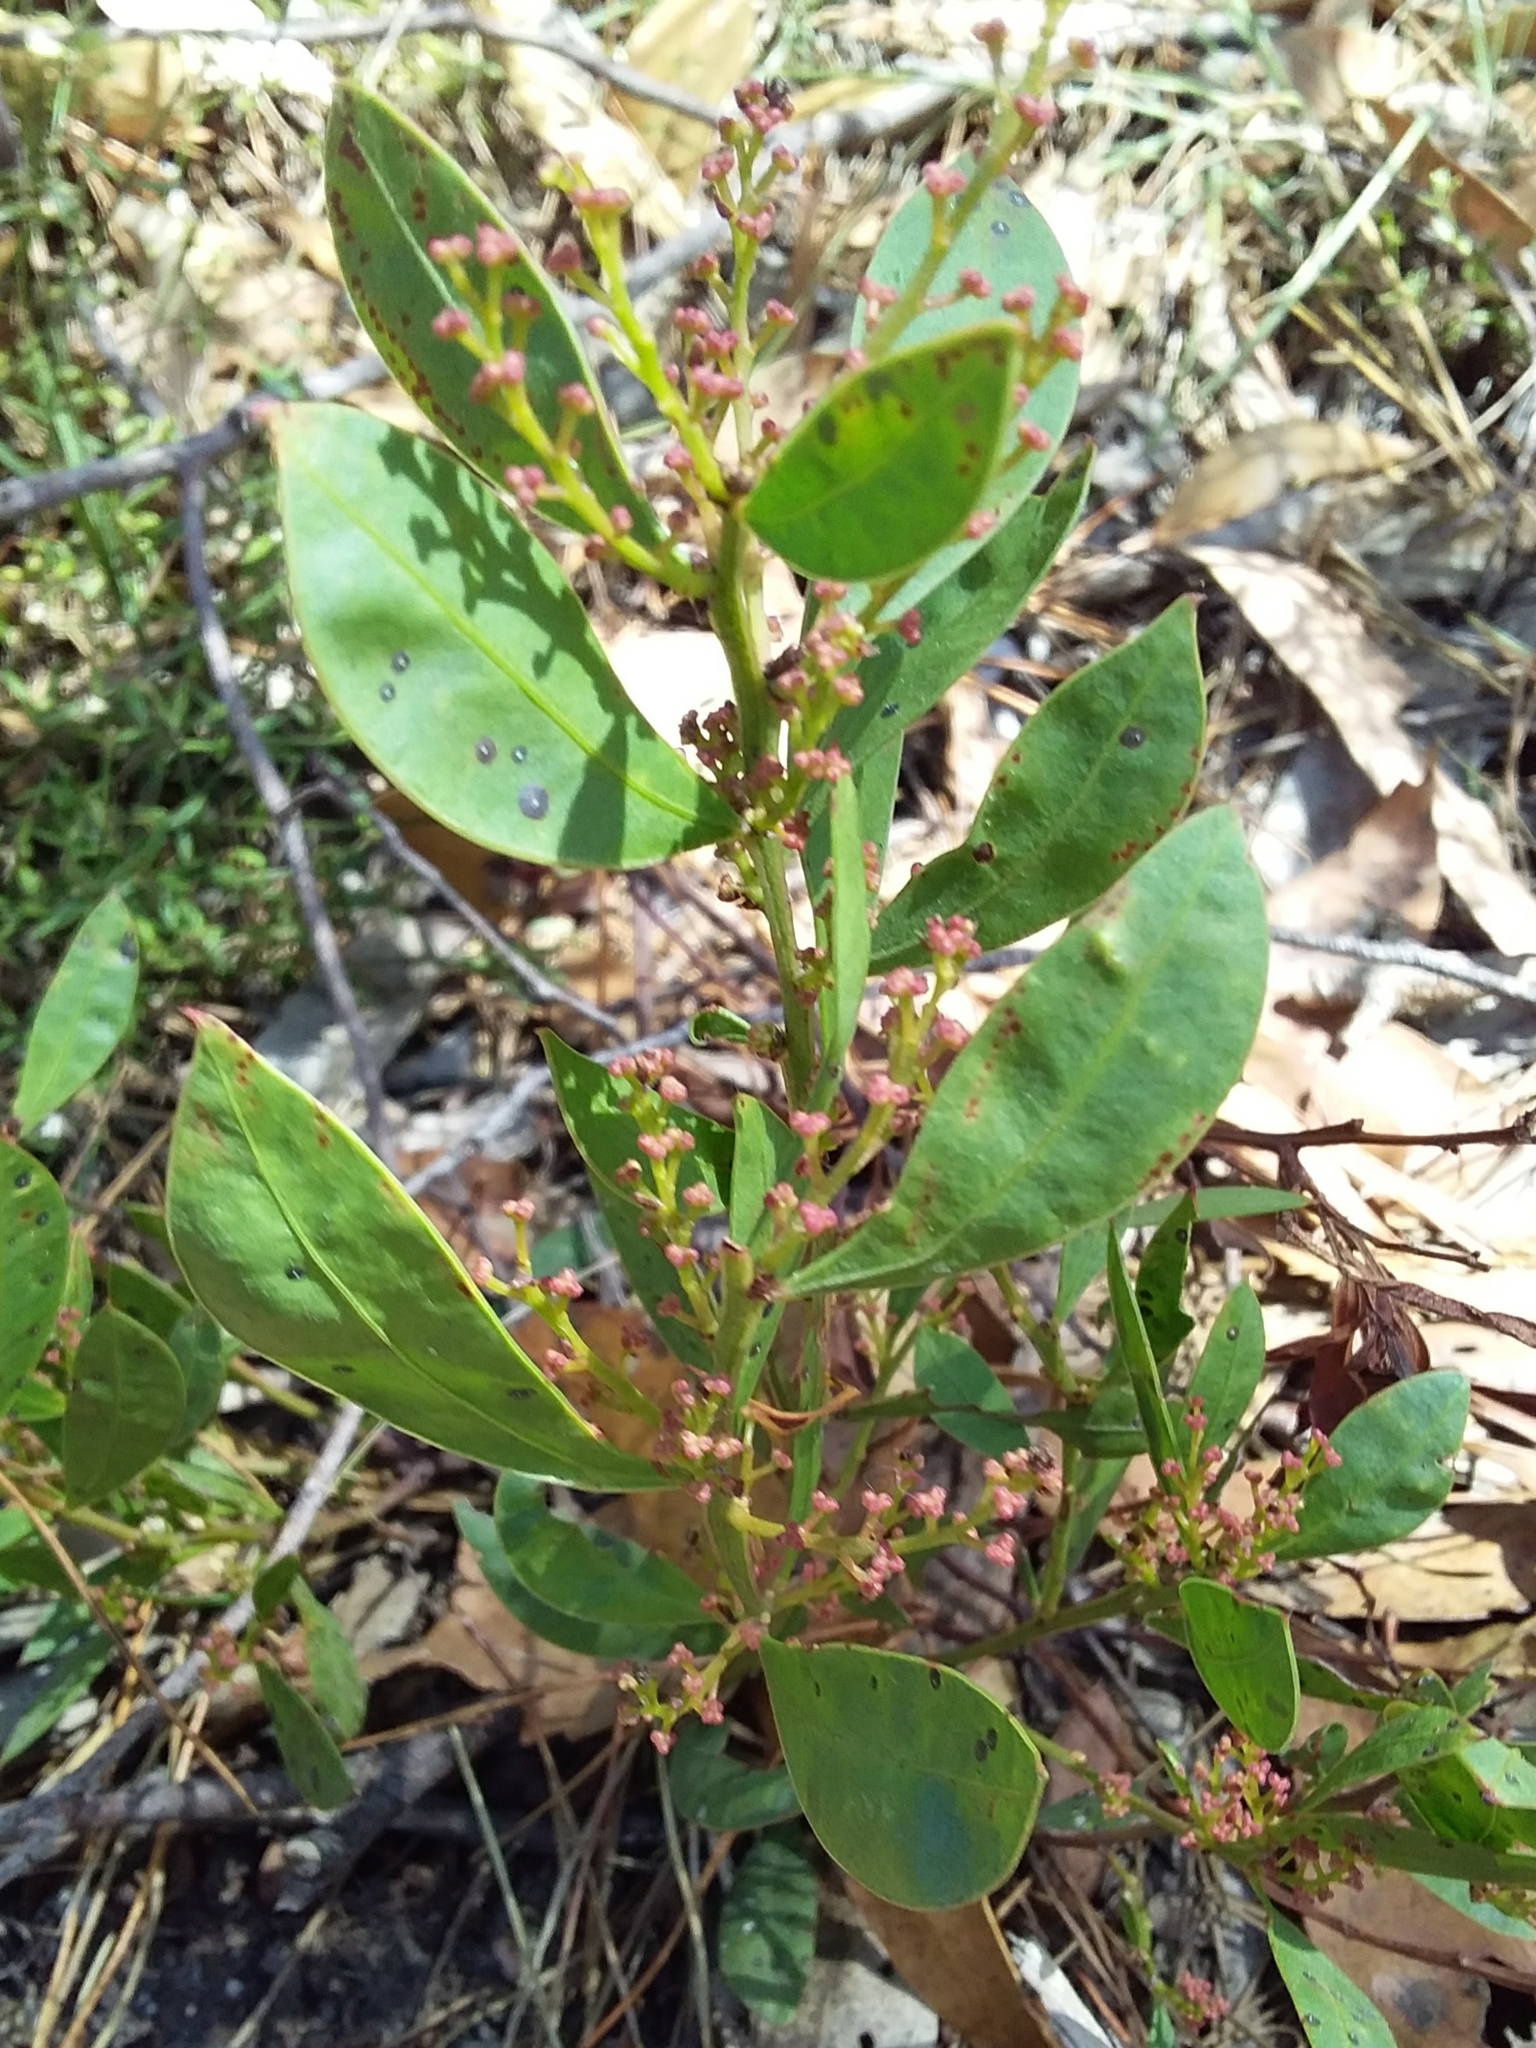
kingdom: Plantae
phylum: Tracheophyta
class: Magnoliopsida
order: Fabales
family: Fabaceae
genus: Acacia
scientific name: Acacia myrtifolia
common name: Myrtle wattle
